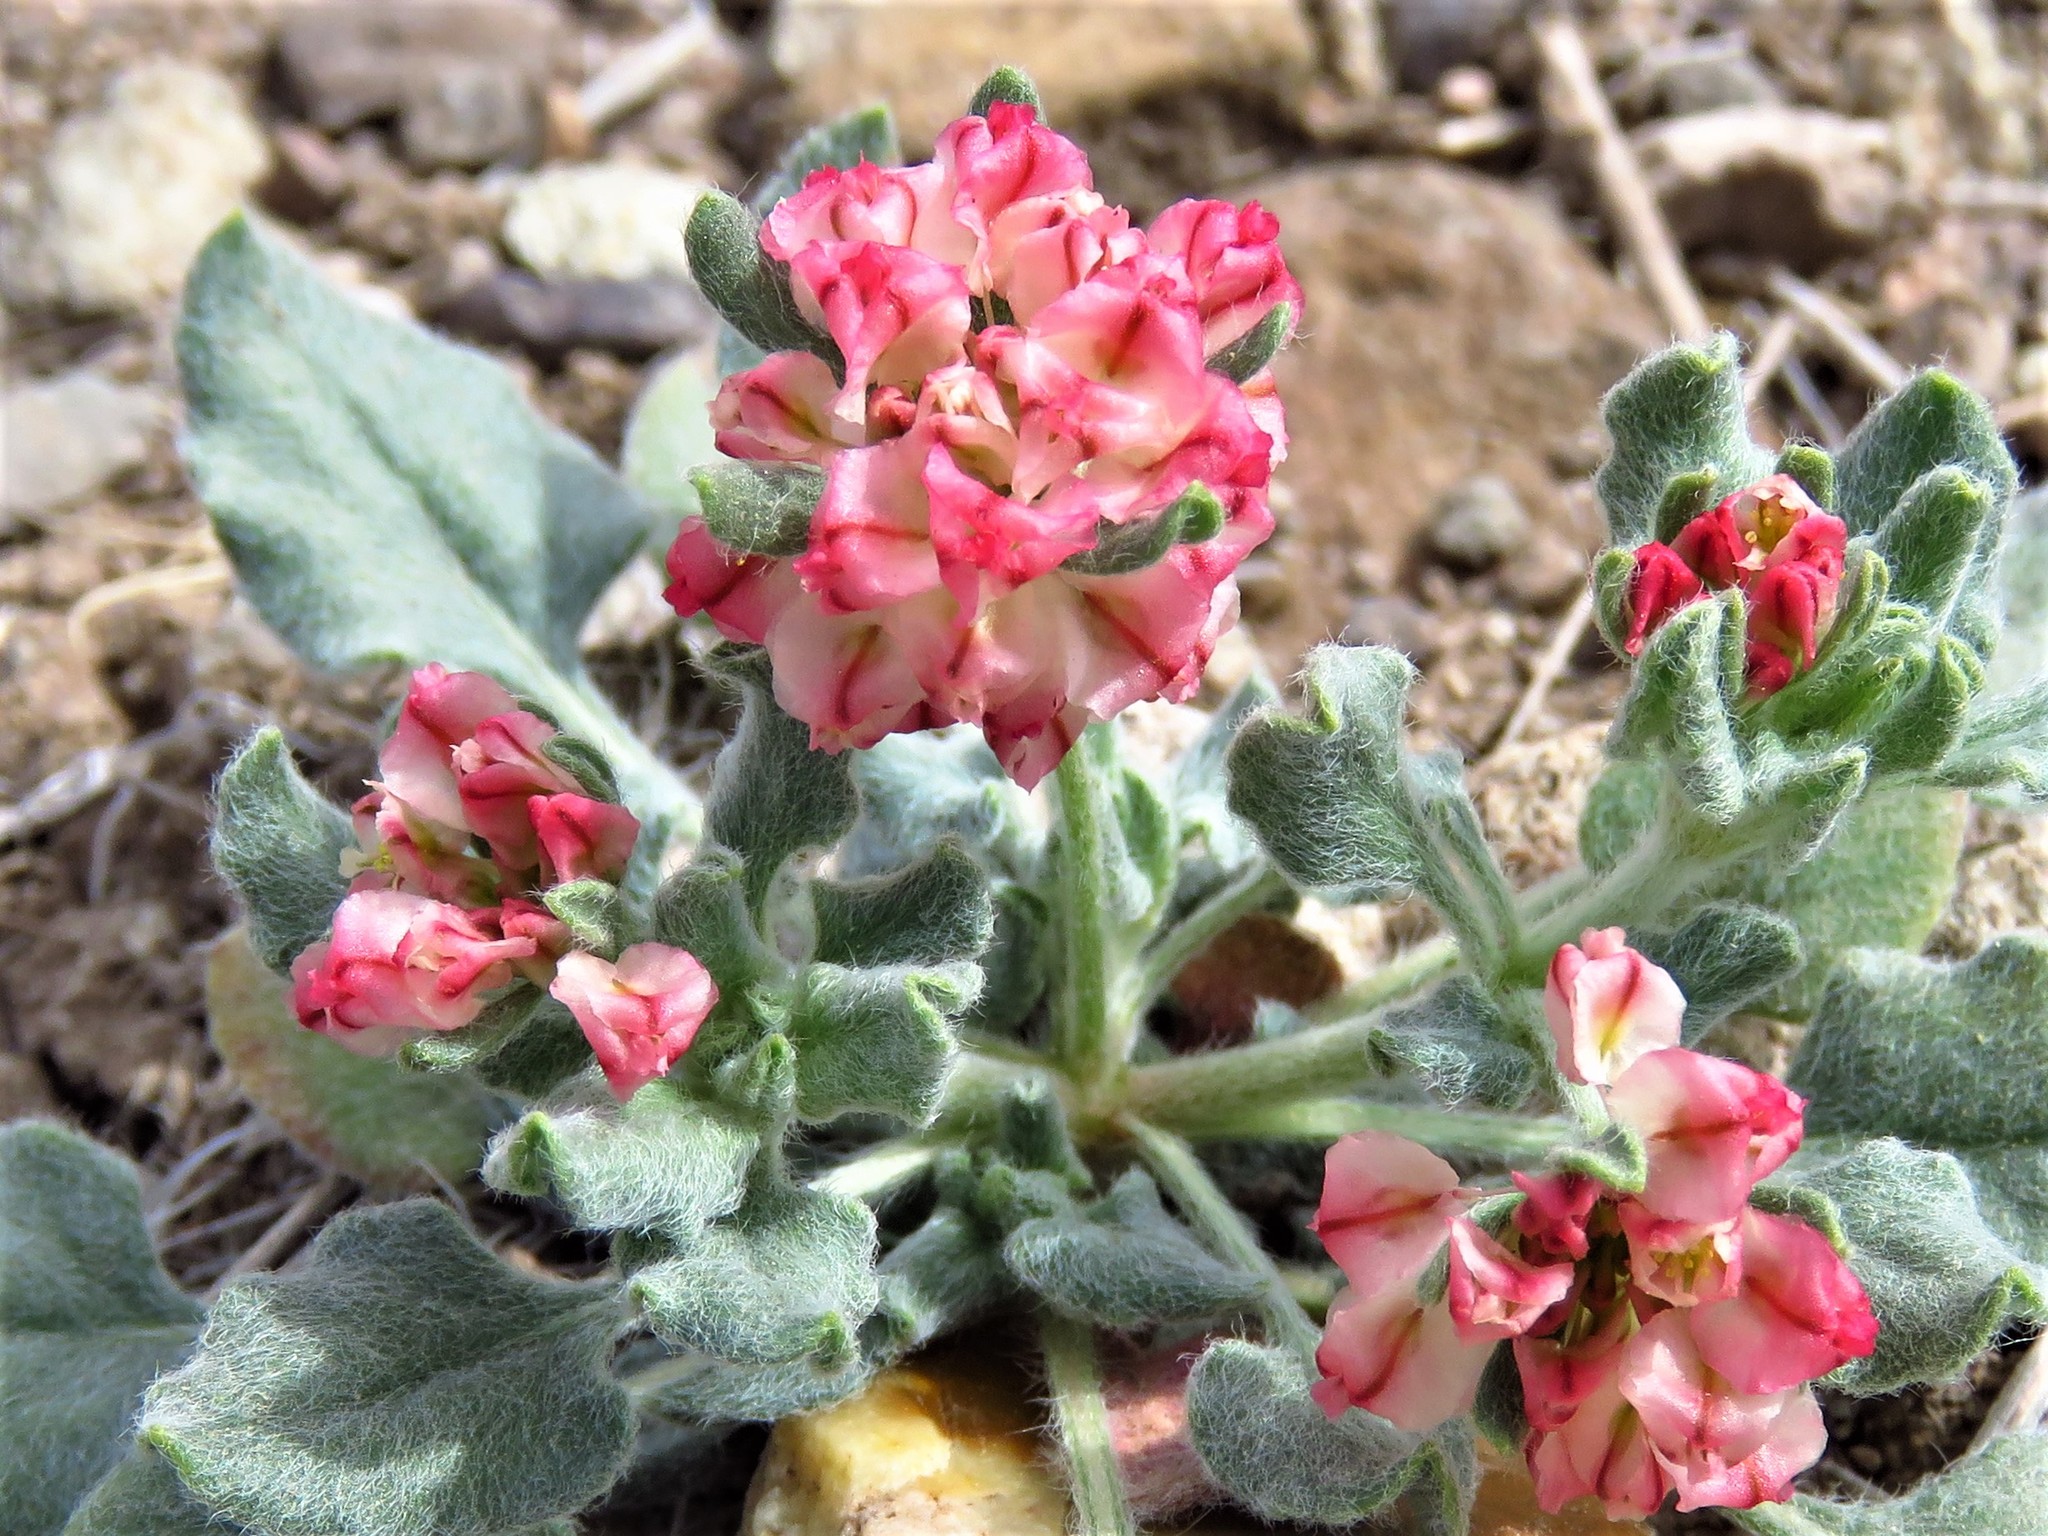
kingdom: Plantae
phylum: Tracheophyta
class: Magnoliopsida
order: Caryophyllales
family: Polygonaceae
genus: Eriogonum
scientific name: Eriogonum abertianum
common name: Abert's wild buckwheat
